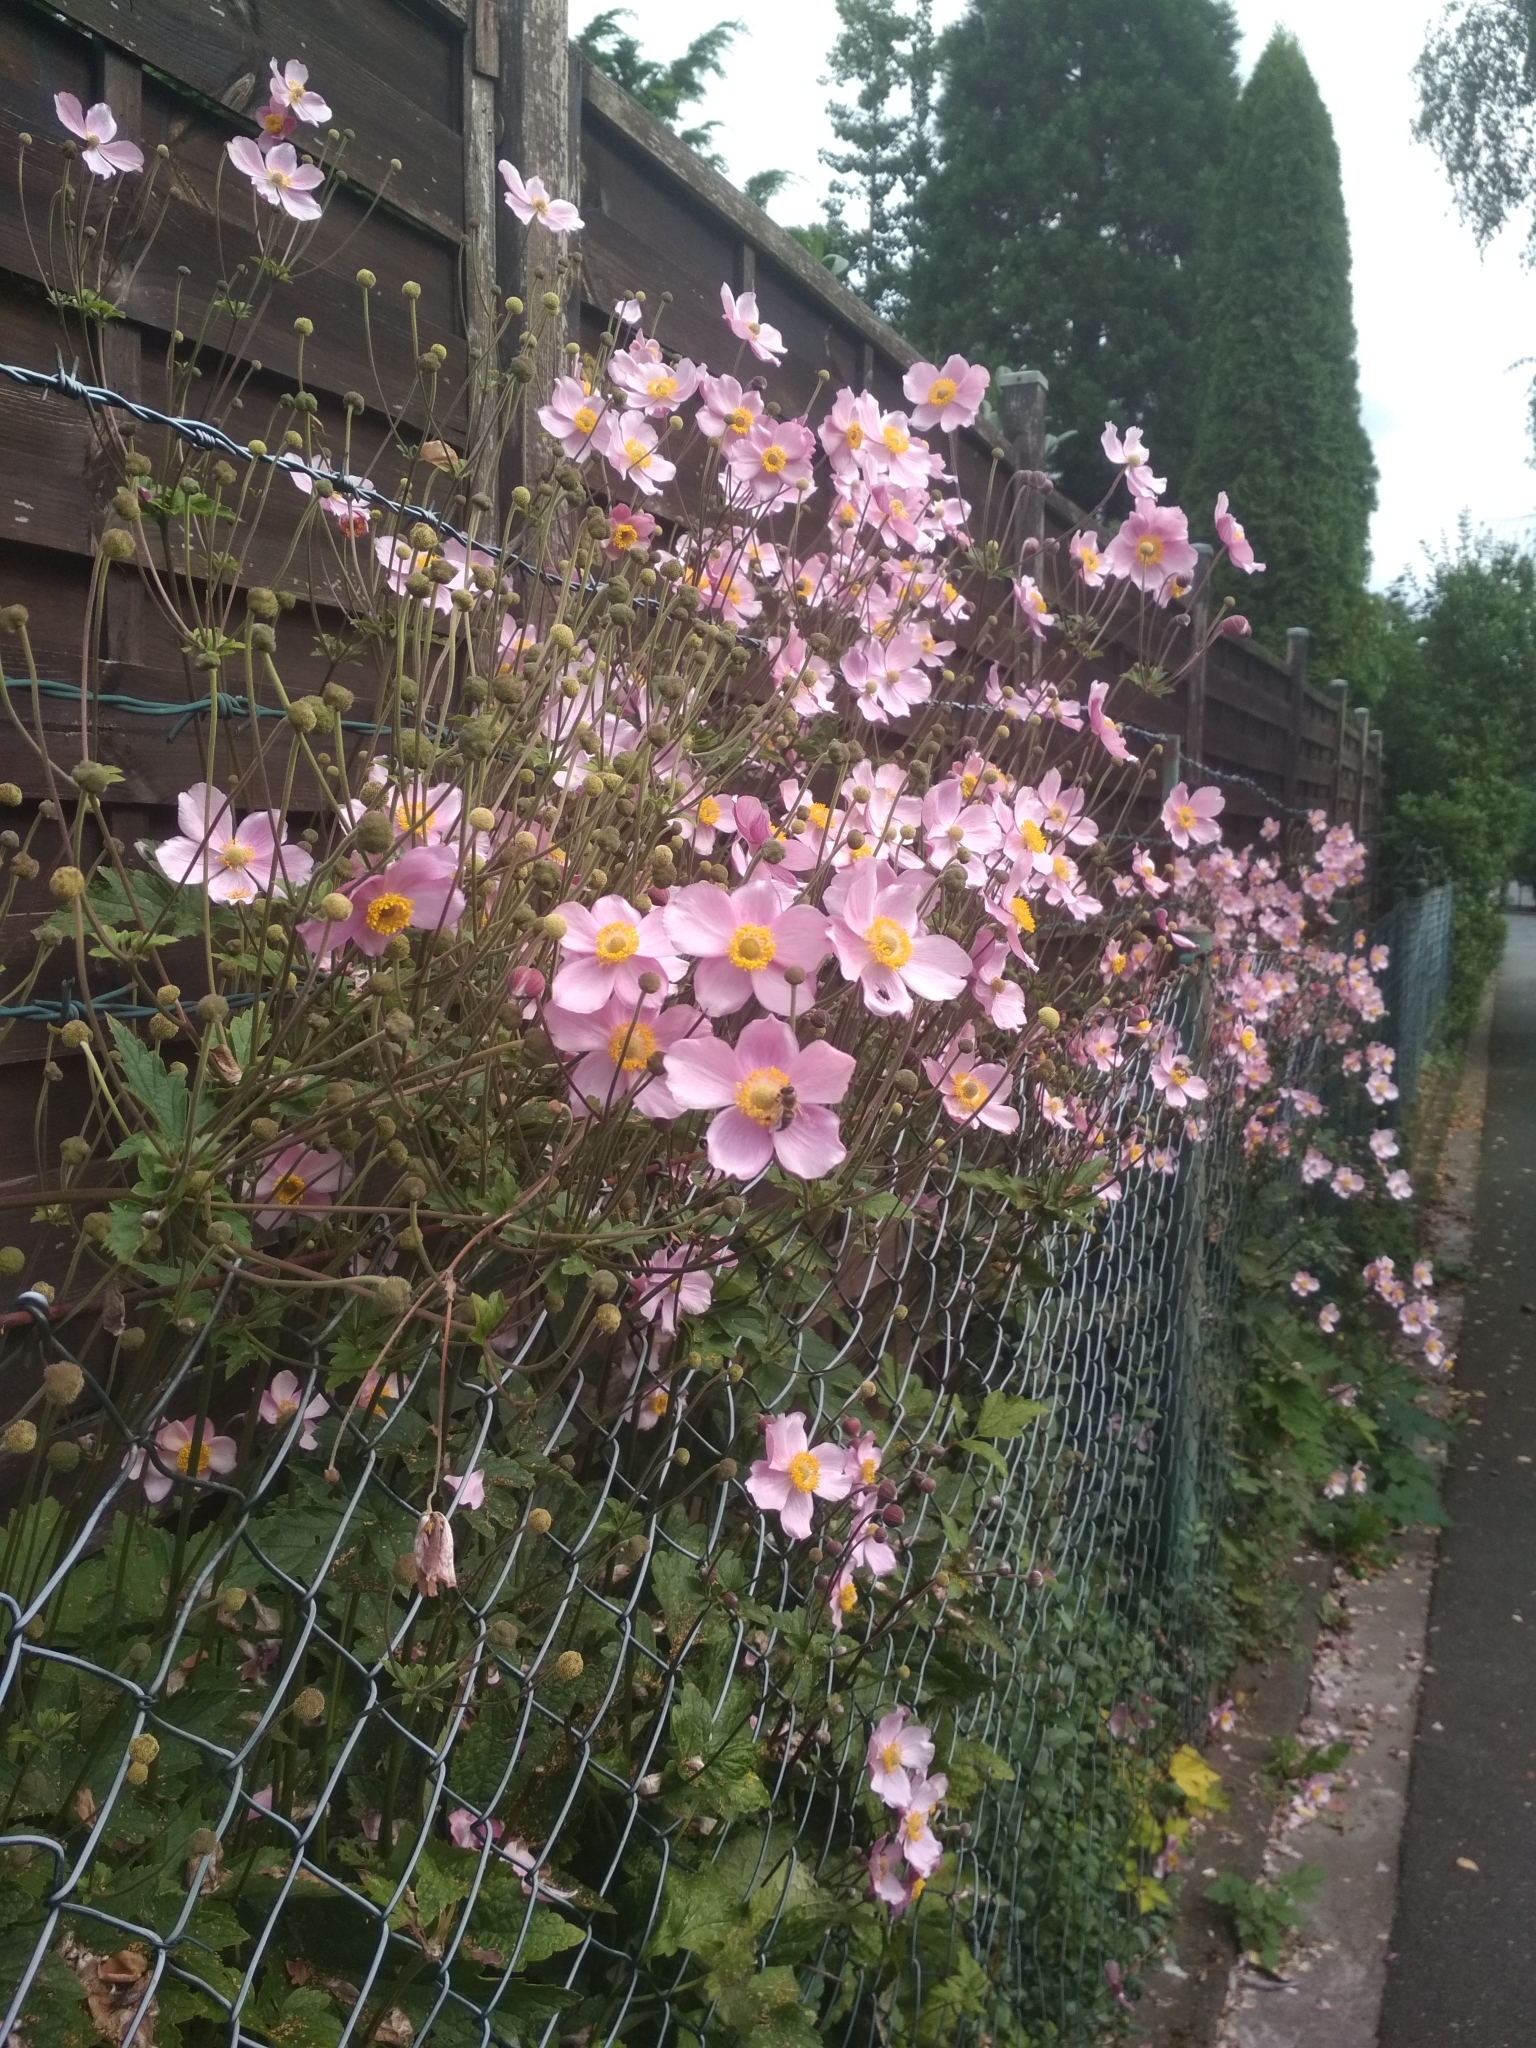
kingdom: Plantae
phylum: Tracheophyta
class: Magnoliopsida
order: Ranunculales
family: Ranunculaceae
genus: Eriocapitella
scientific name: Eriocapitella hupehensis
